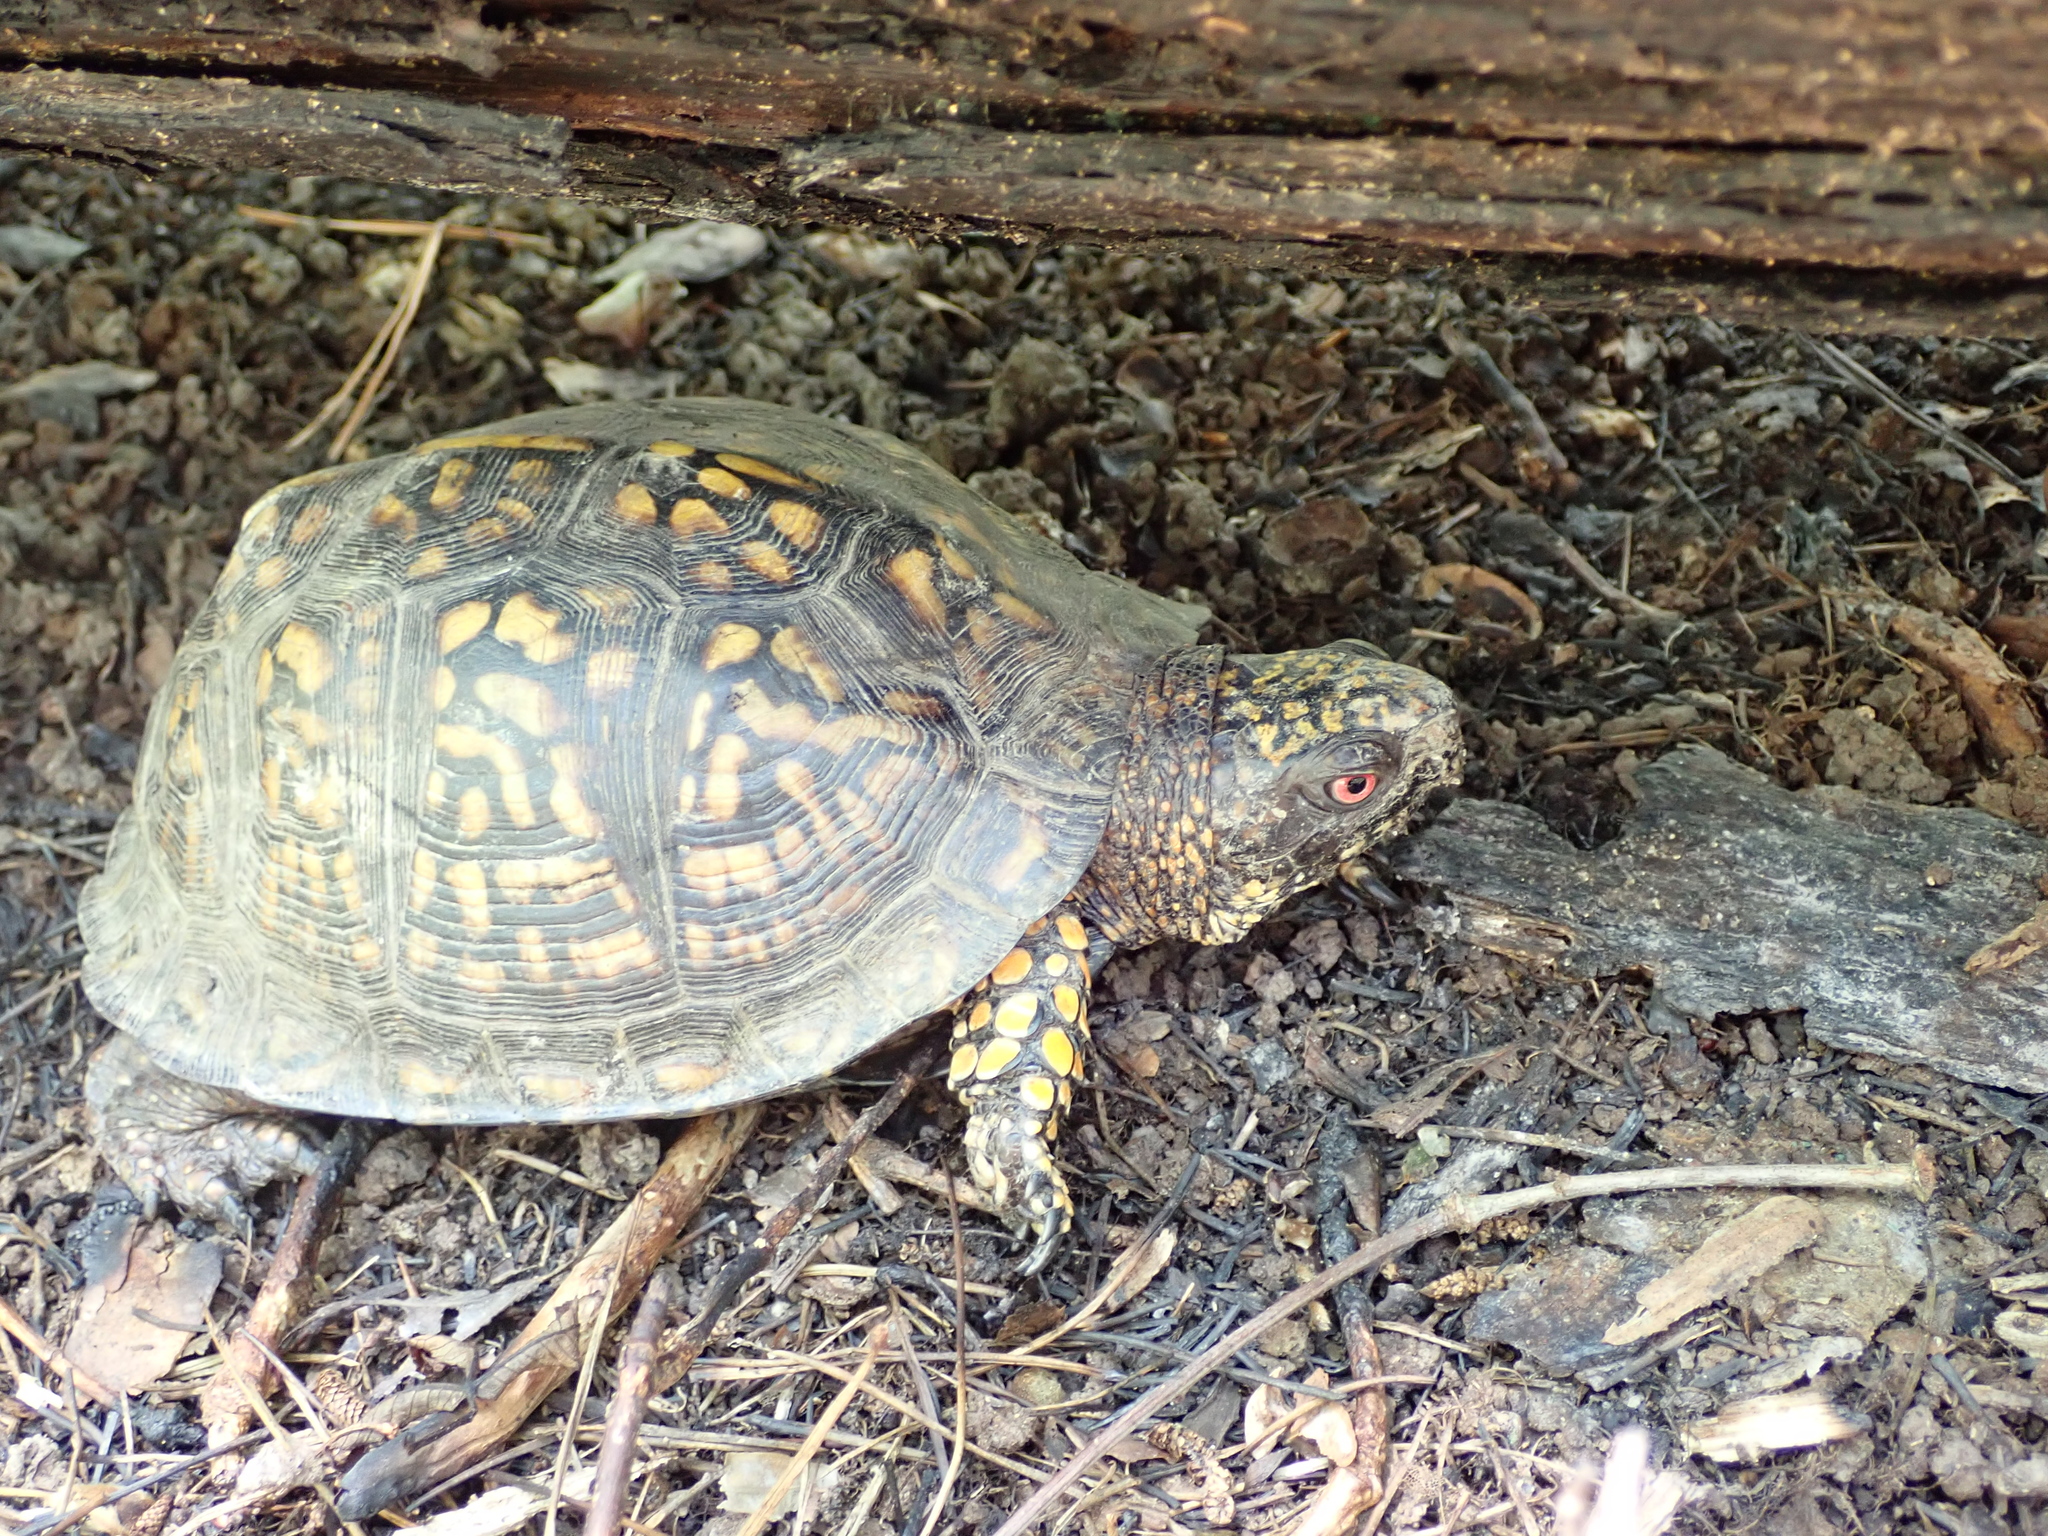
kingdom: Animalia
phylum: Chordata
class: Testudines
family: Emydidae
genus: Terrapene
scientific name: Terrapene carolina
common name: Common box turtle
